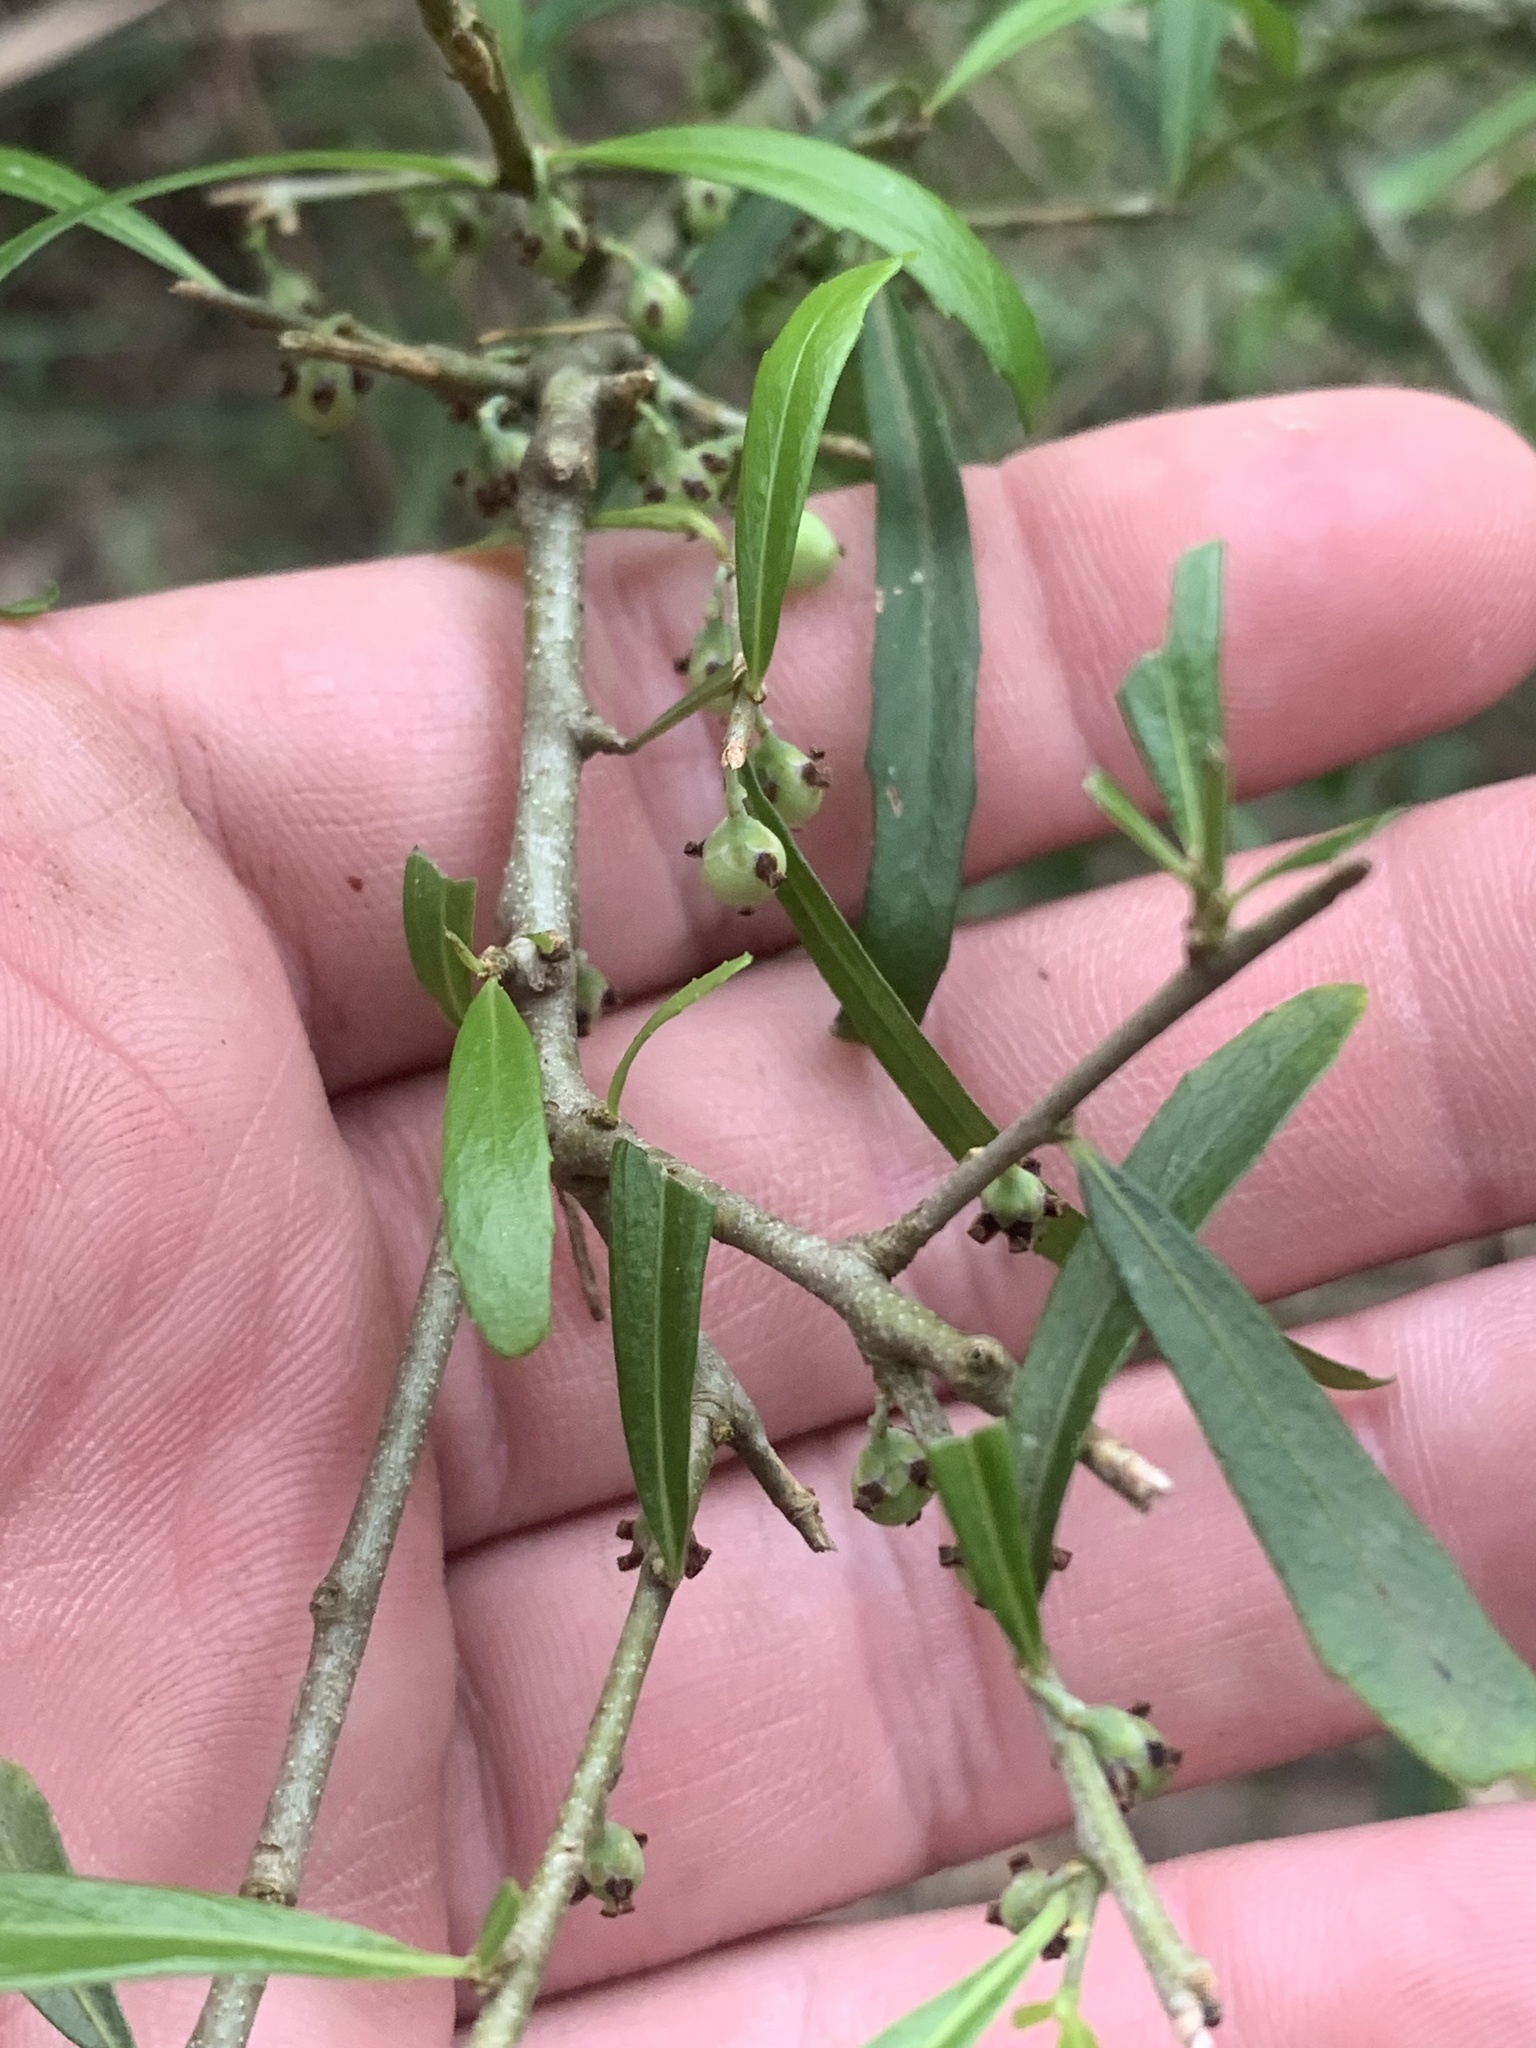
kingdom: Plantae
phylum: Tracheophyta
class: Magnoliopsida
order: Malpighiales
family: Violaceae
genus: Melicytus
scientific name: Melicytus dentatus
